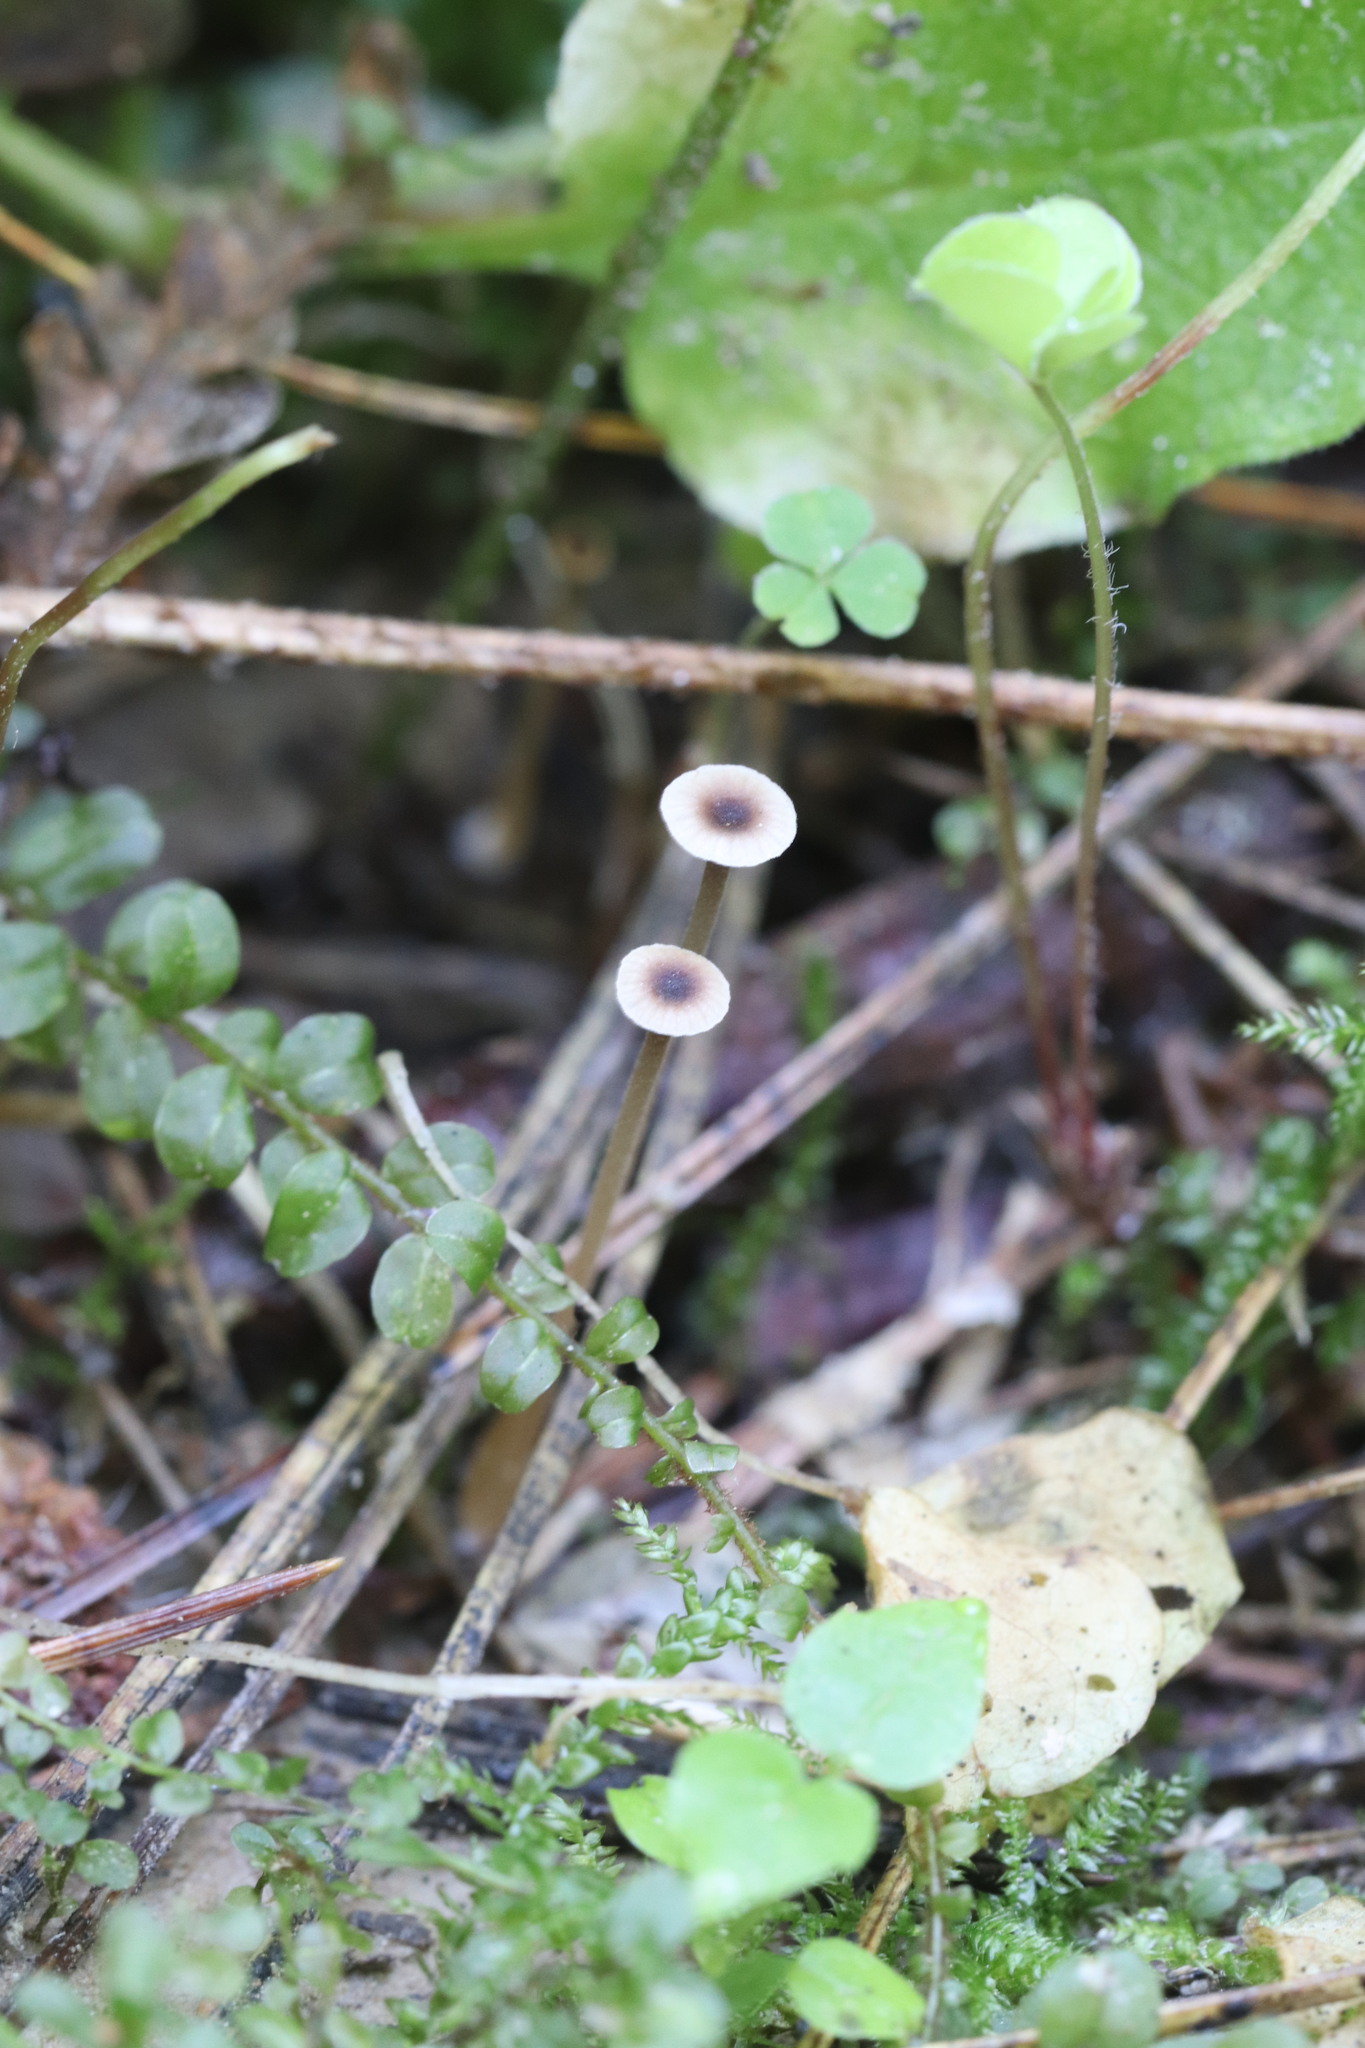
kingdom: Fungi
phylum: Basidiomycota
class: Agaricomycetes
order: Hymenochaetales
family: Rickenellaceae
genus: Rickenella
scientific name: Rickenella swartzii
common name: Collared mosscap
